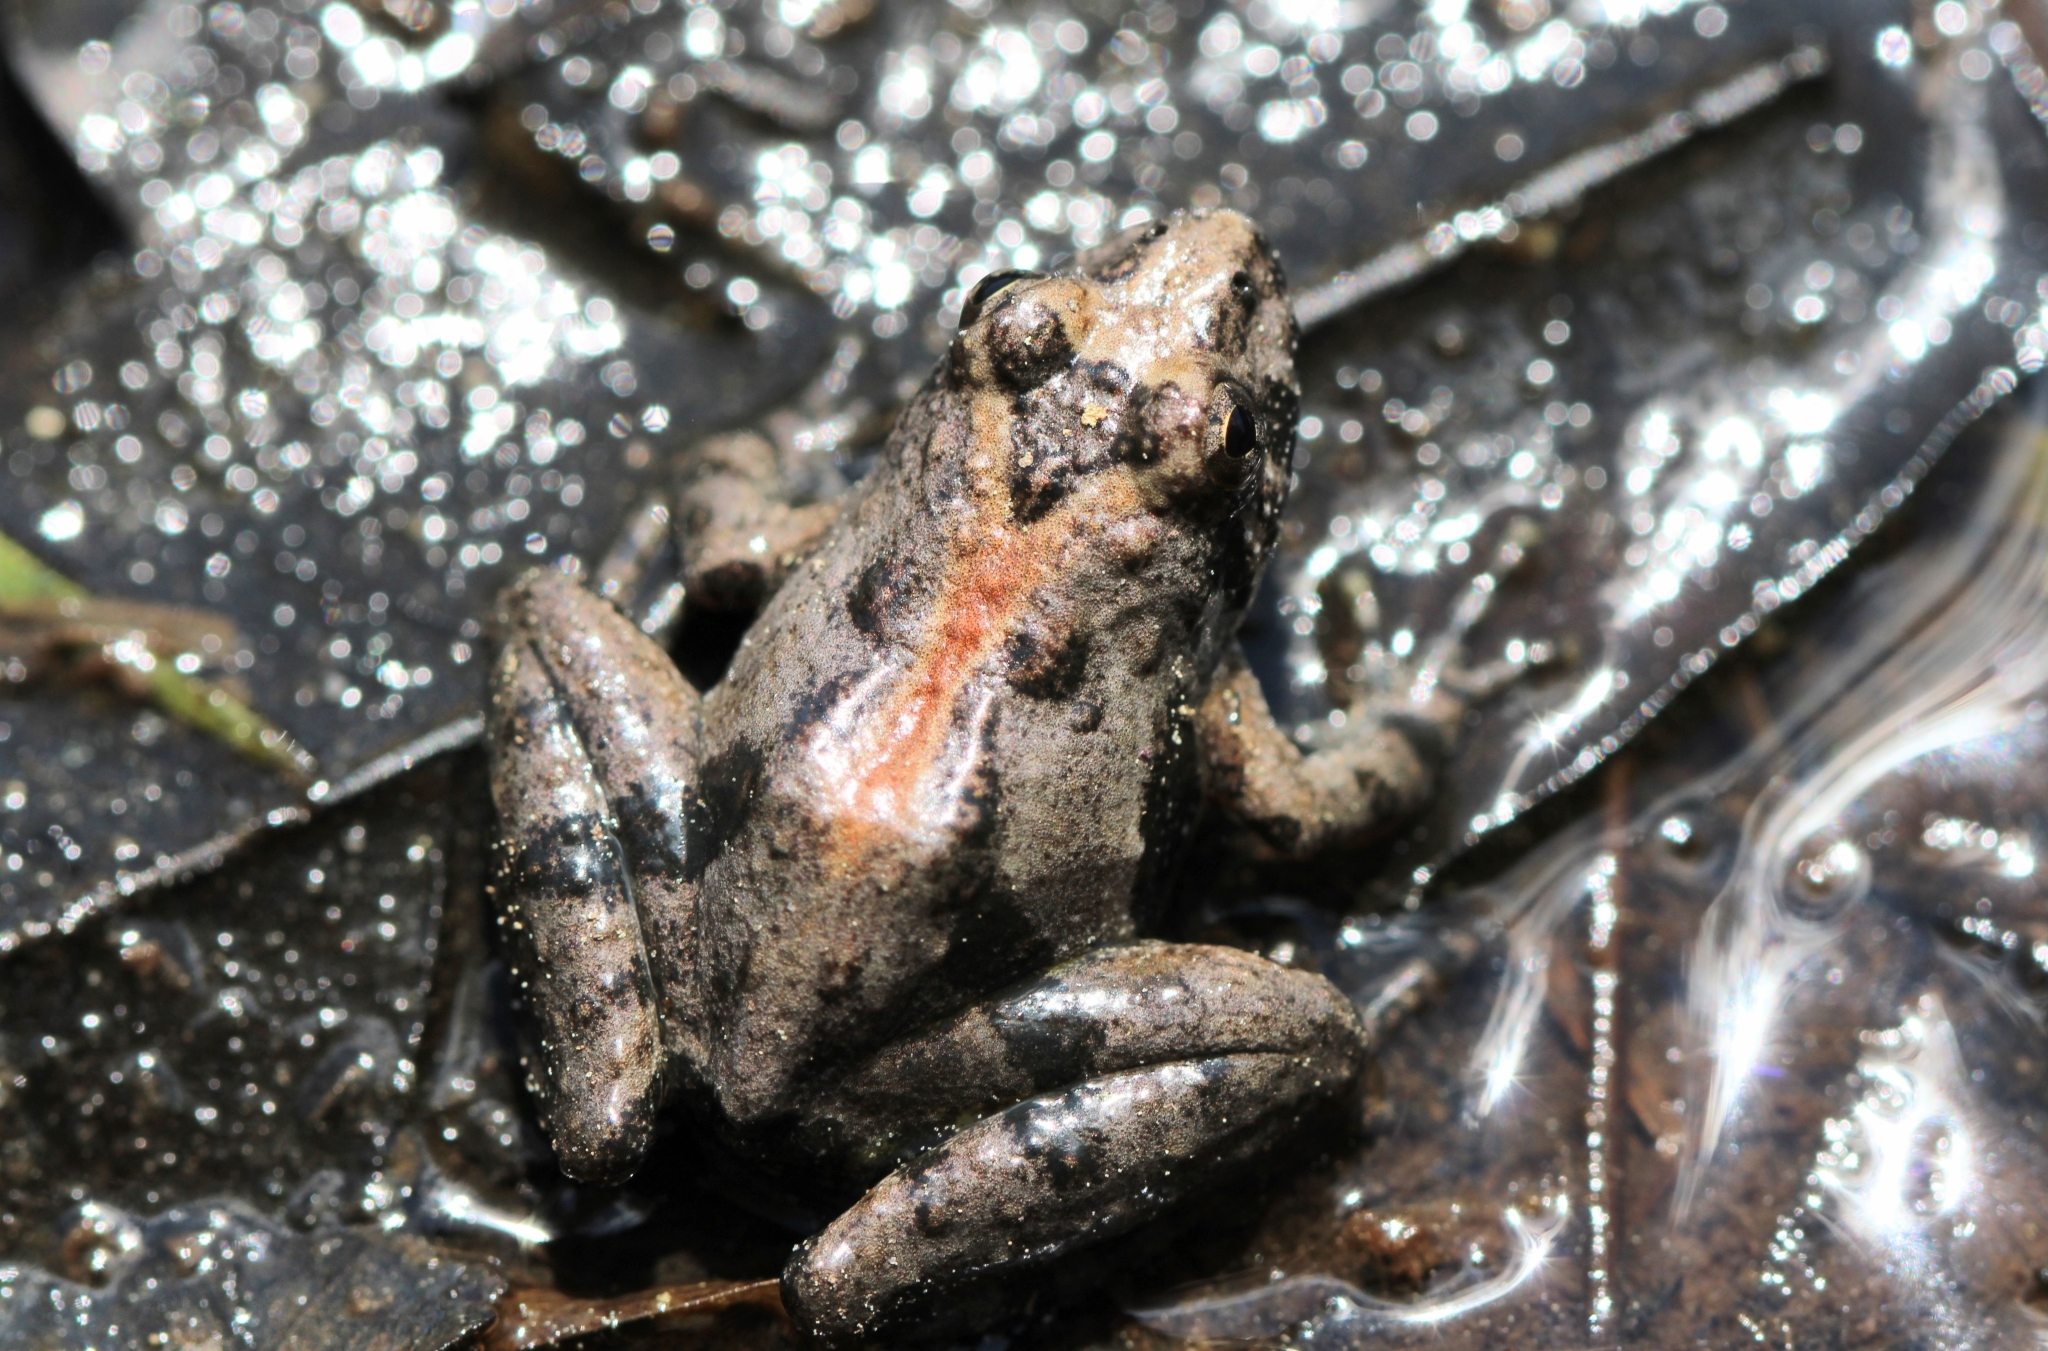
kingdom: Animalia
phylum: Chordata
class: Amphibia
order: Anura
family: Hylidae
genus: Acris
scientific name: Acris crepitans
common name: Northern cricket frog
